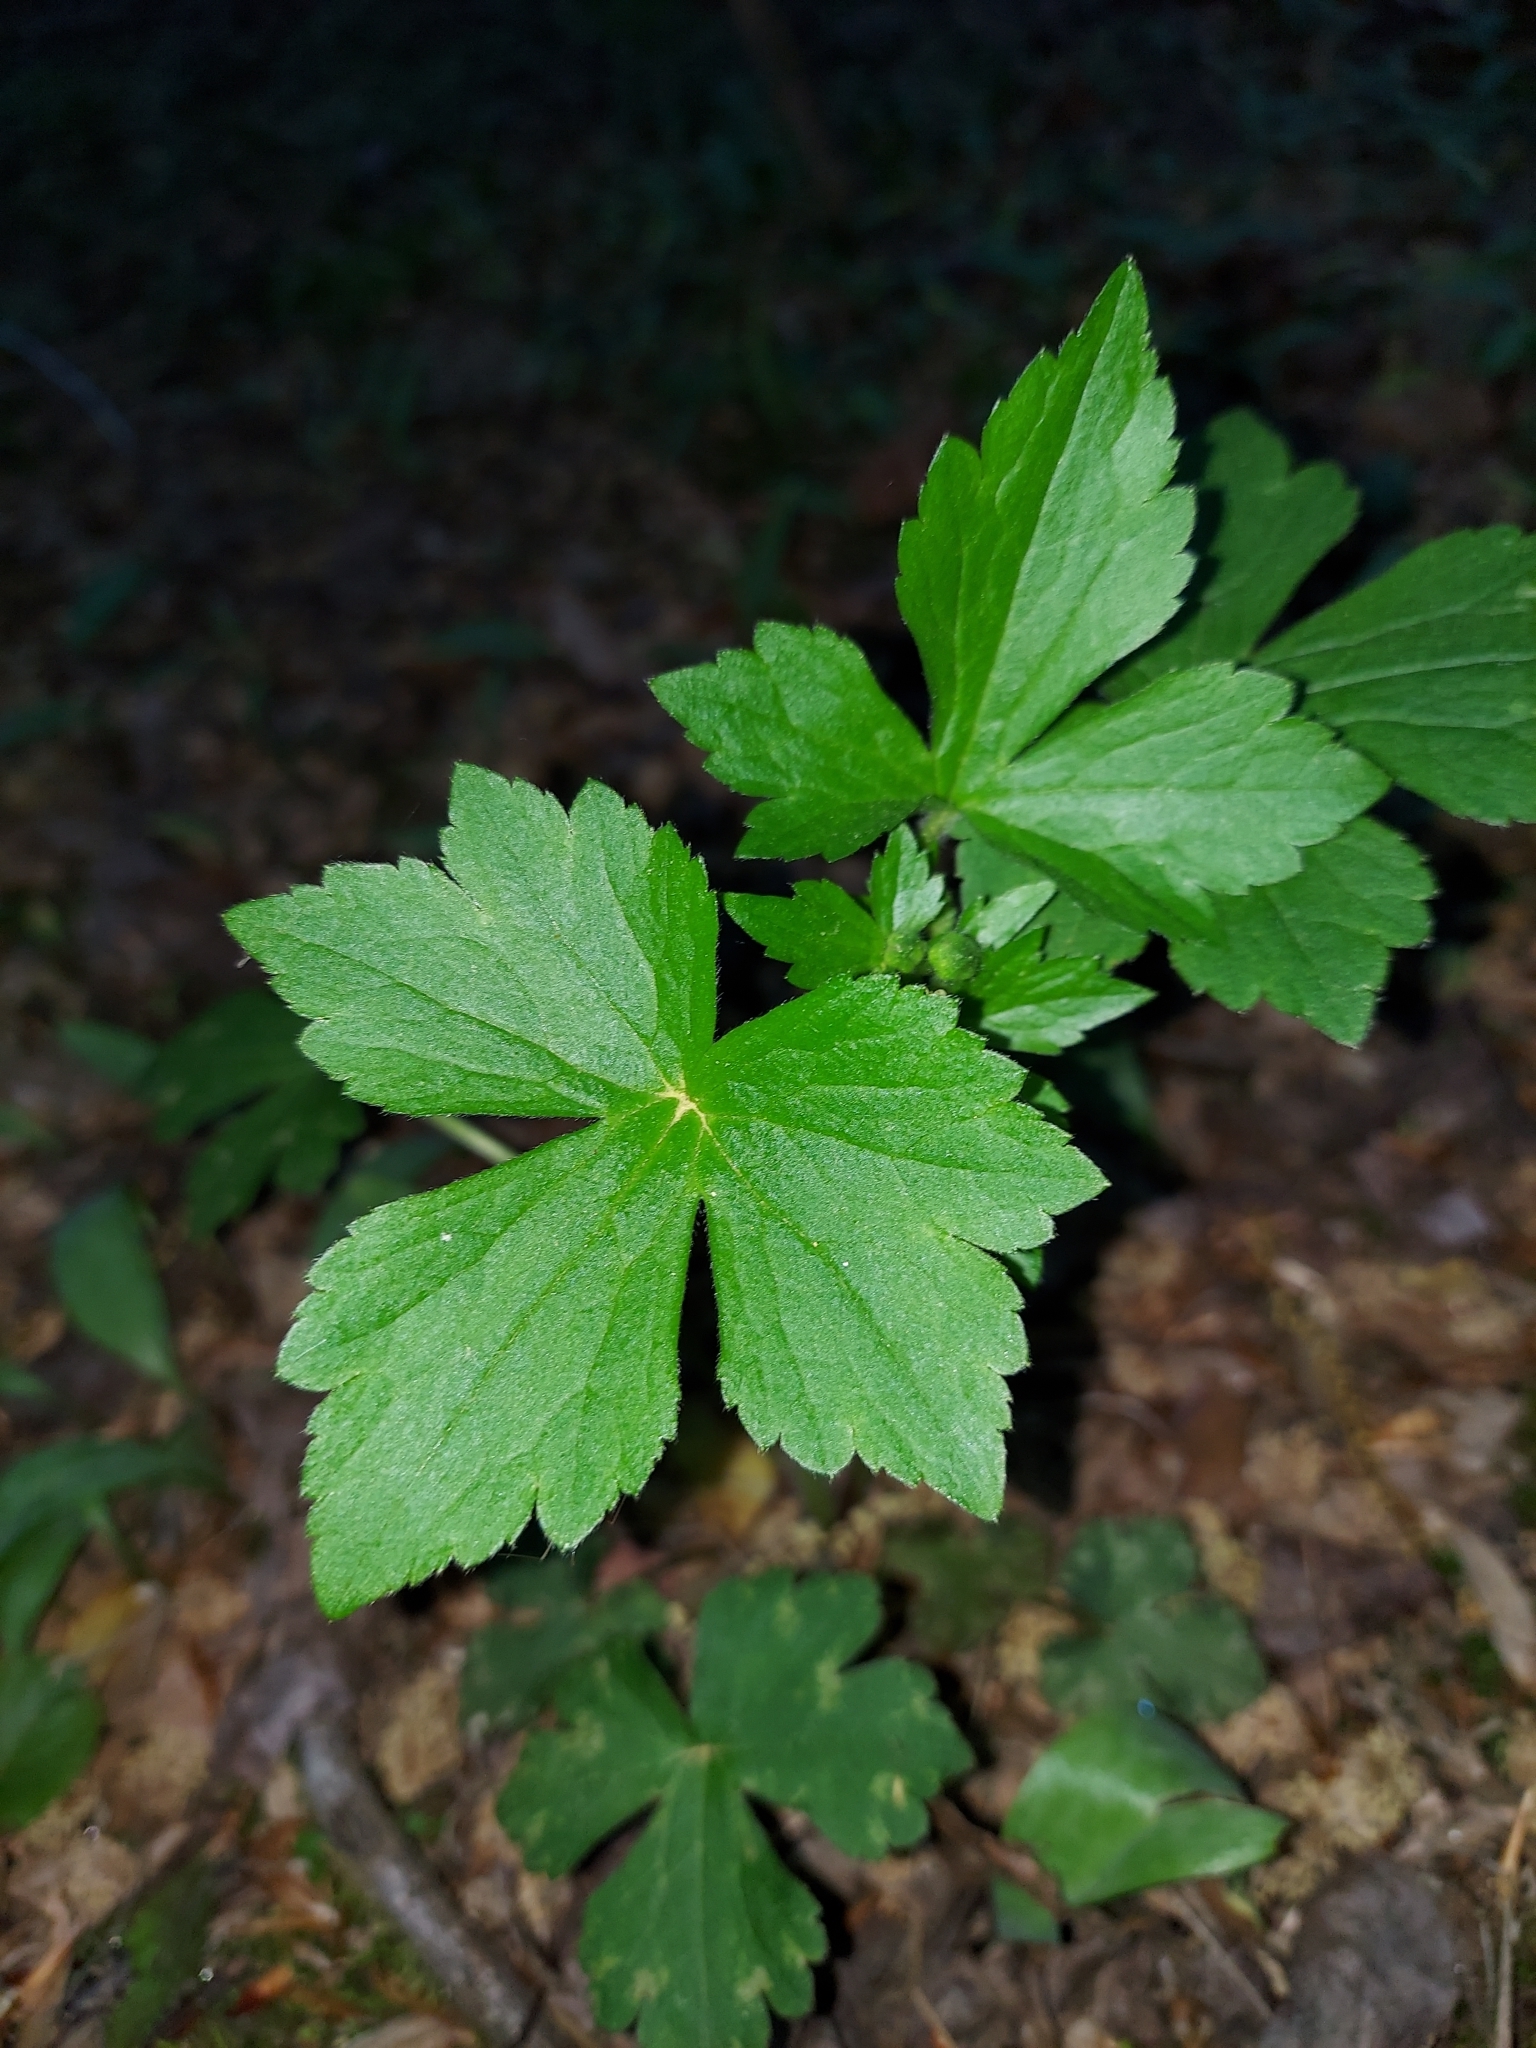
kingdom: Plantae
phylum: Tracheophyta
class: Magnoliopsida
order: Ranunculales
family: Ranunculaceae
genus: Ranunculus
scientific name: Ranunculus recurvatus
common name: Blisterwort
